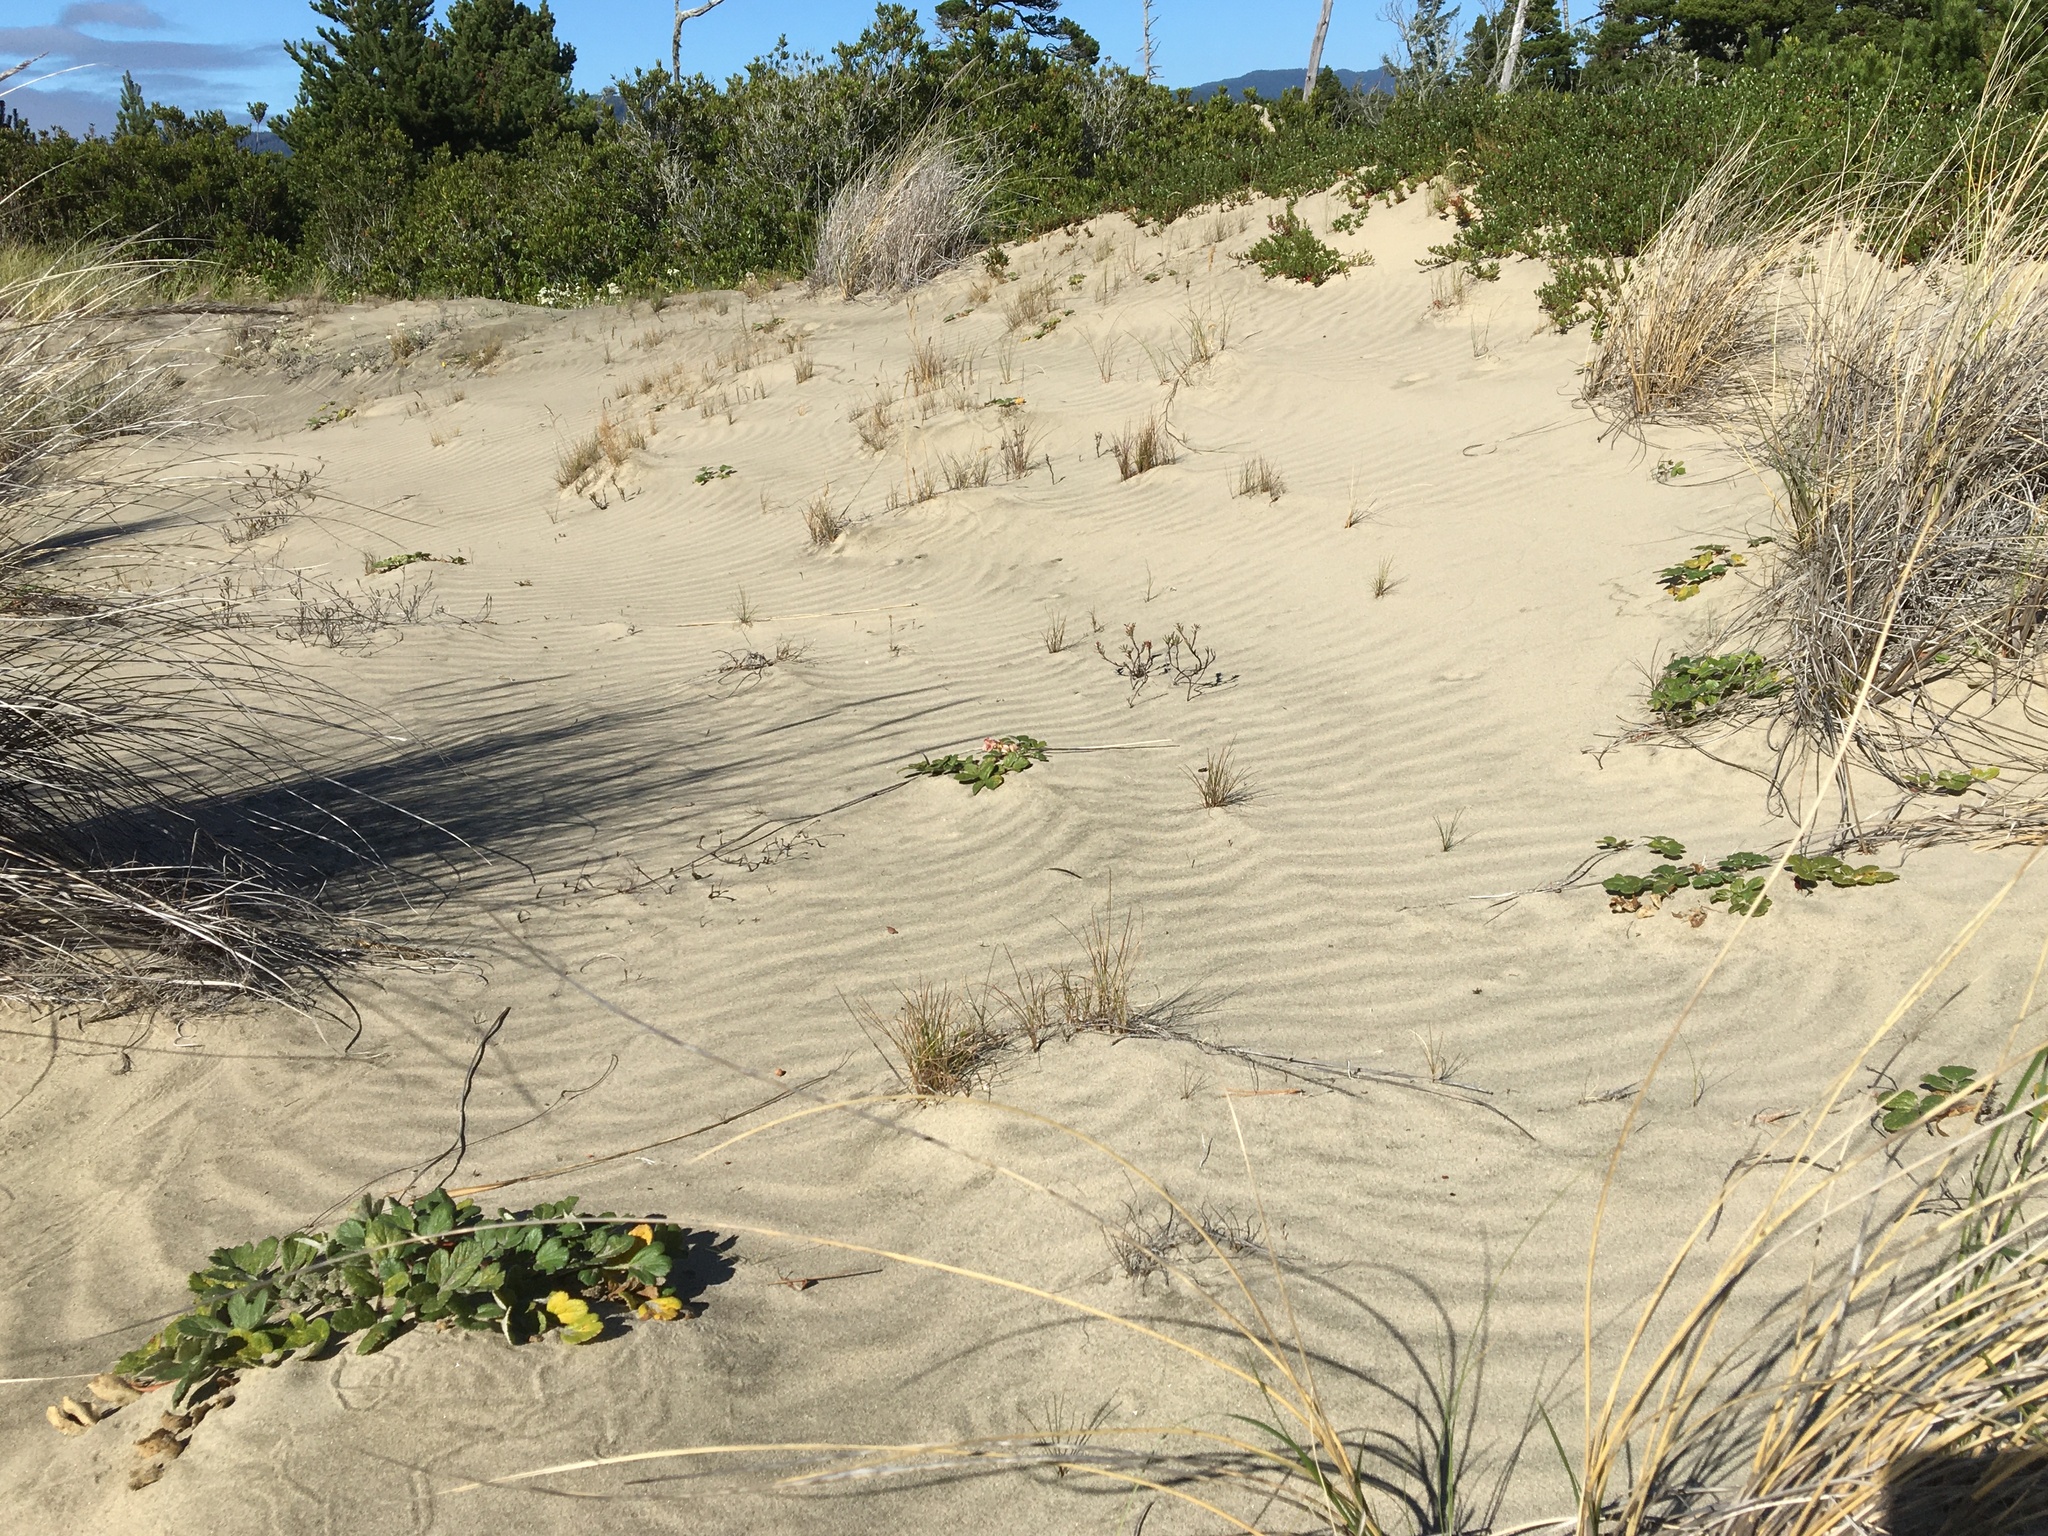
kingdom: Plantae
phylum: Tracheophyta
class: Magnoliopsida
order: Apiales
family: Apiaceae
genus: Angelica
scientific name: Angelica leiocarpa
